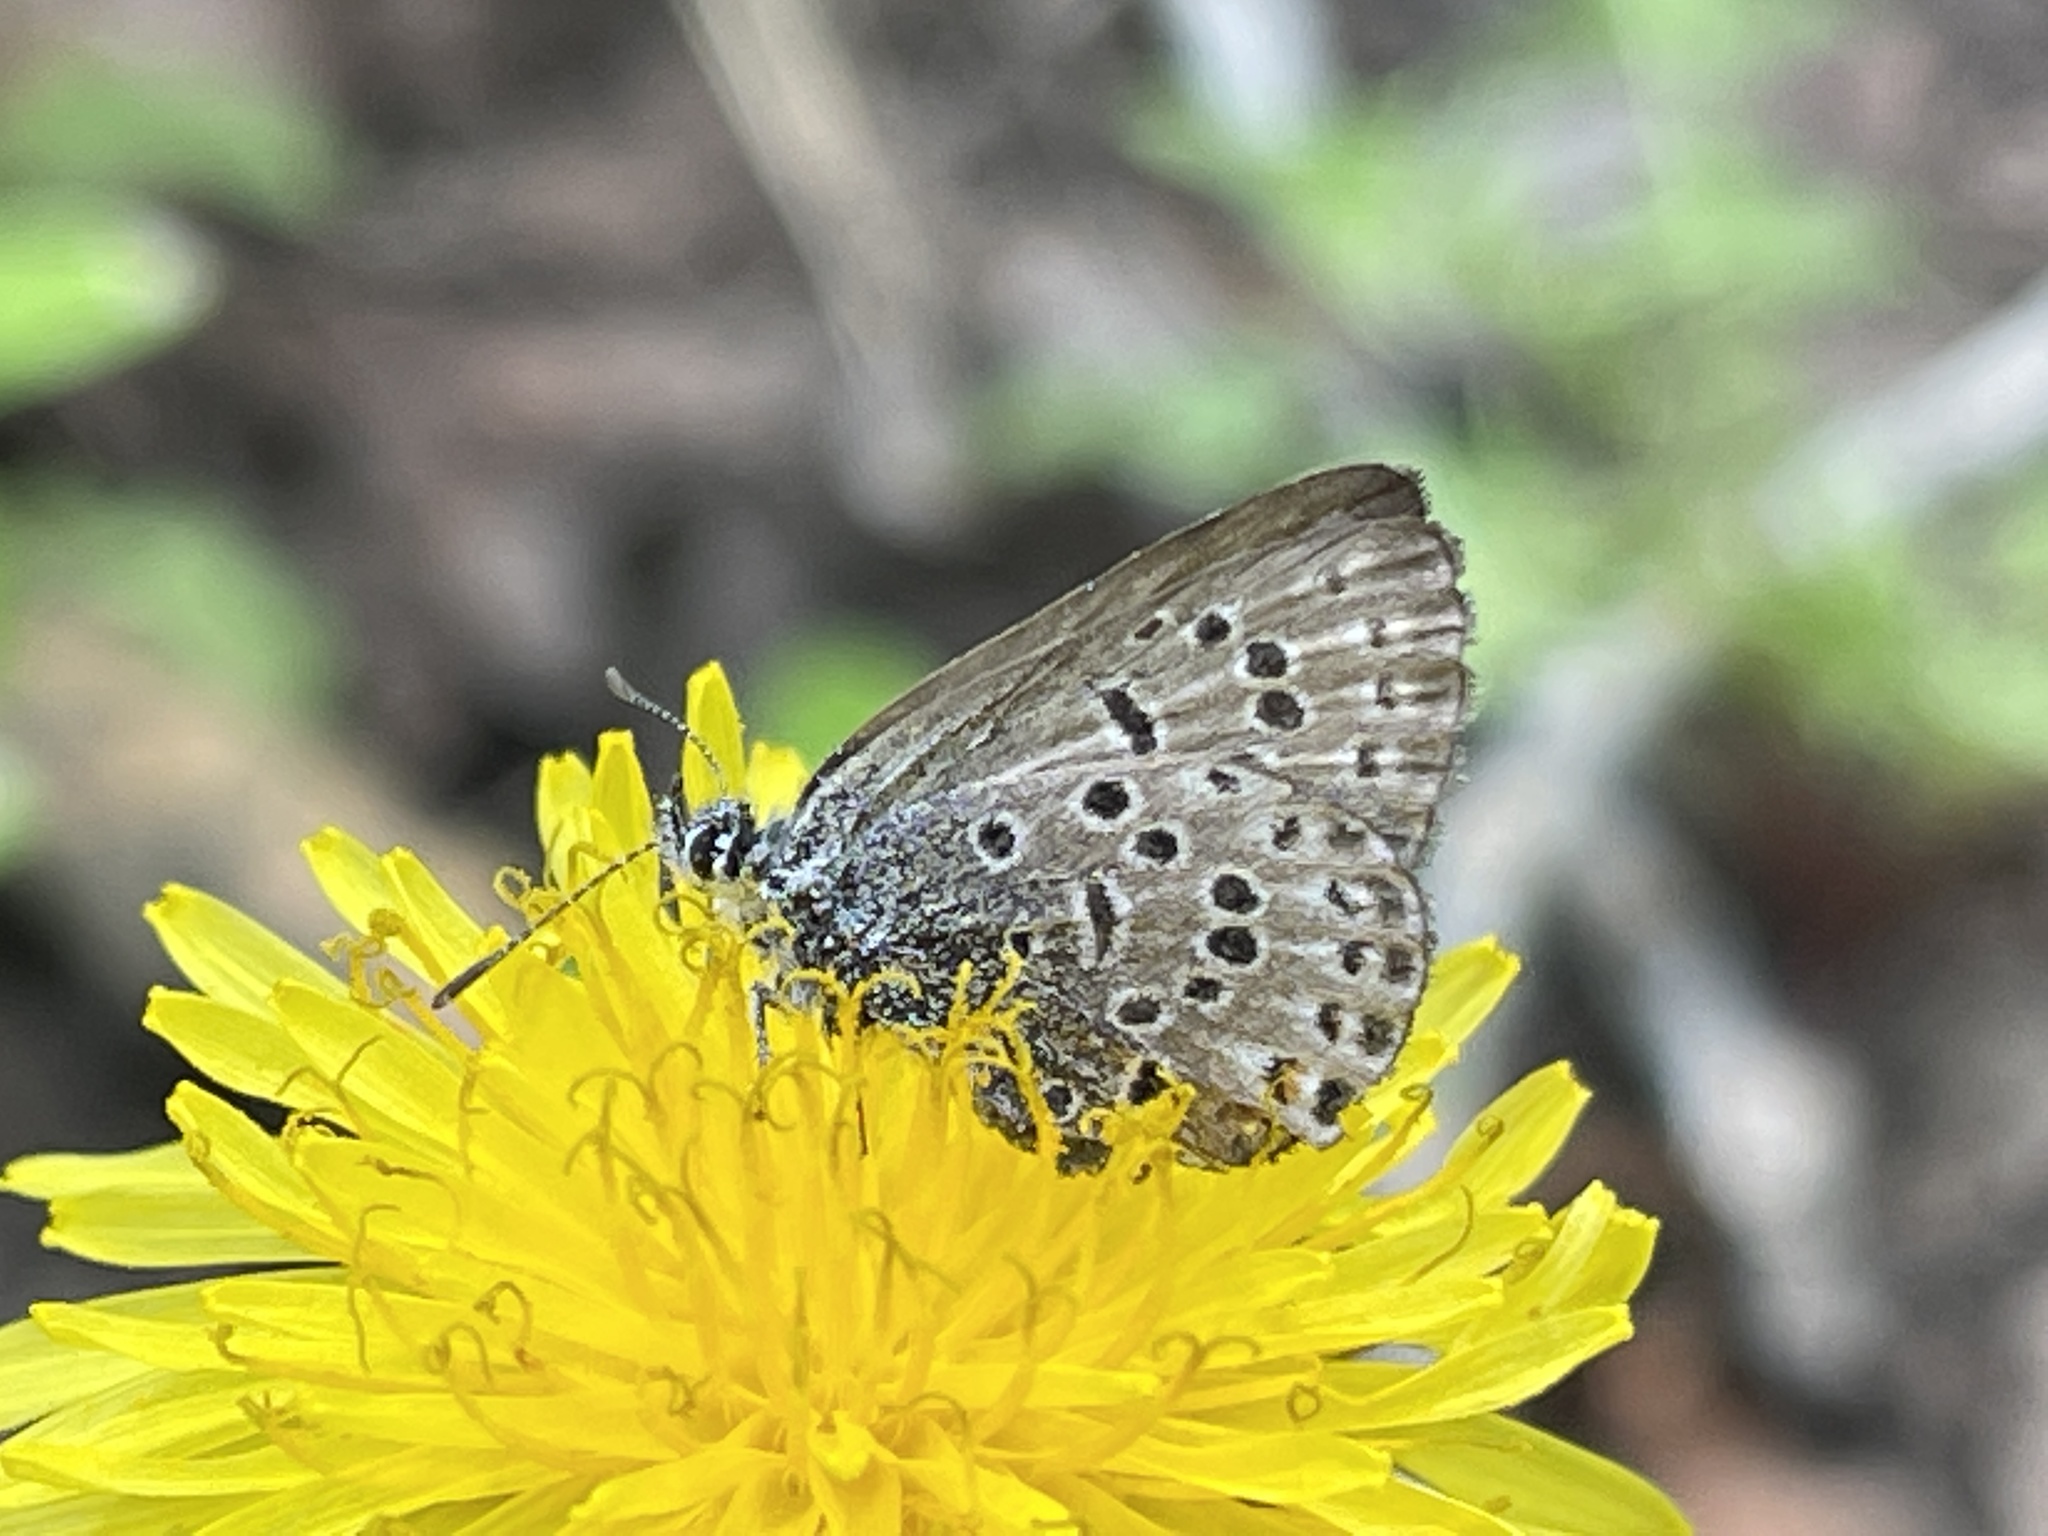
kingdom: Animalia
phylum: Arthropoda
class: Insecta
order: Lepidoptera
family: Lycaenidae
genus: Icaricia
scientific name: Icaricia saepiolus
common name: Greenish blue
